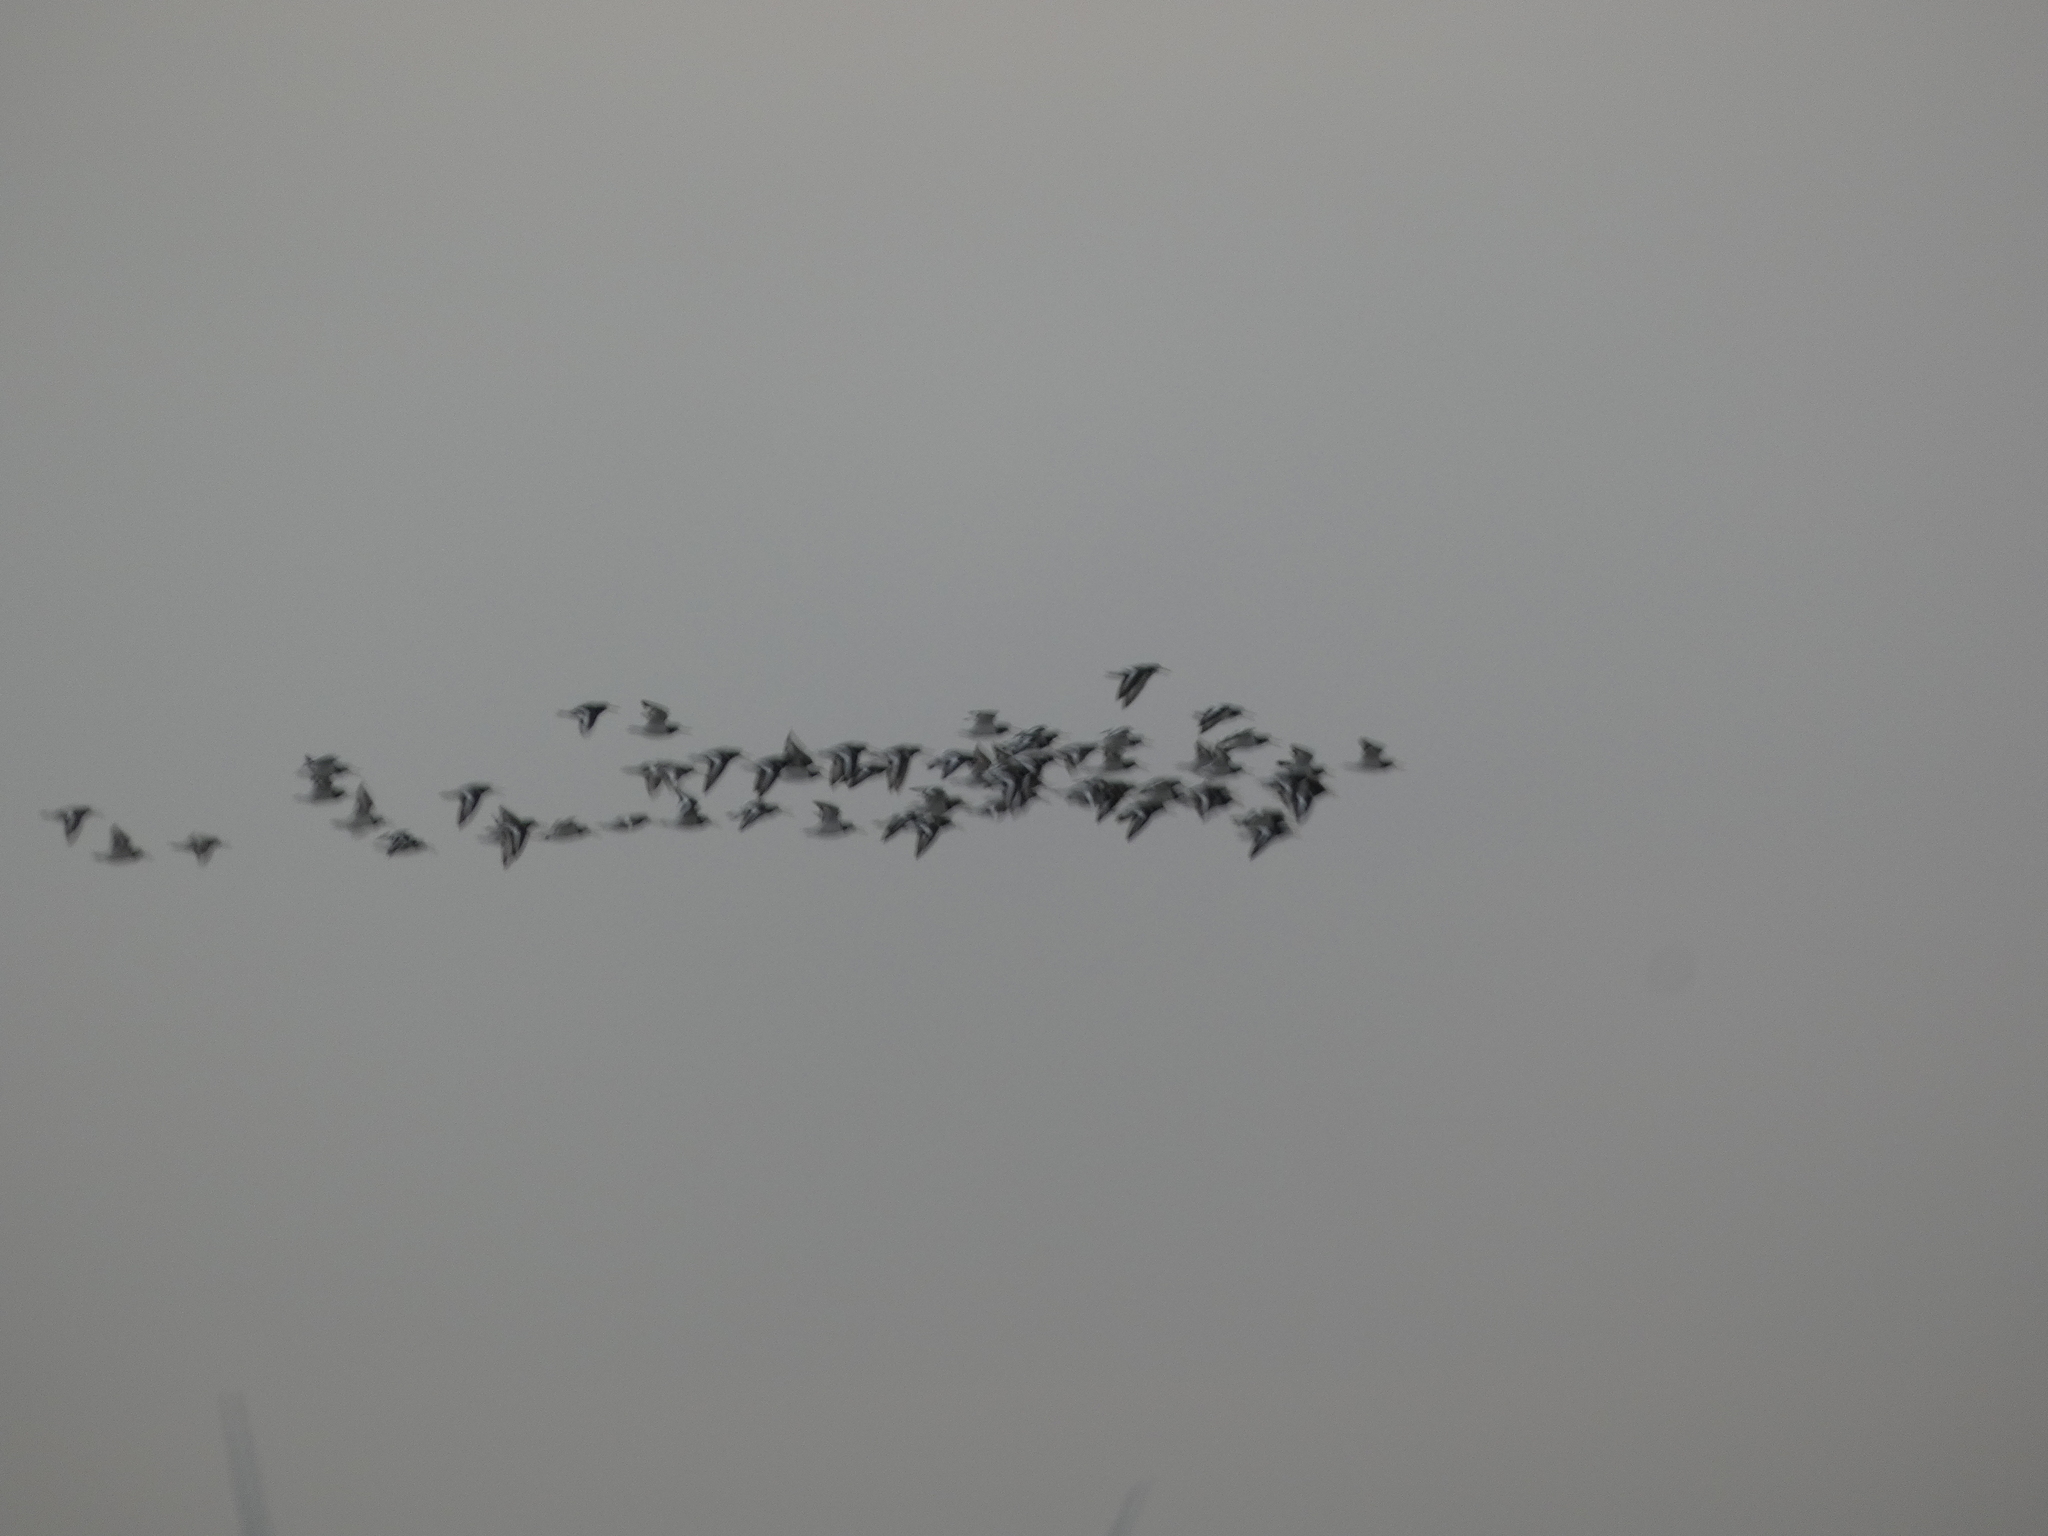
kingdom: Animalia
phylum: Chordata
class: Aves
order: Charadriiformes
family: Haematopodidae
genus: Haematopus
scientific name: Haematopus ostralegus
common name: Eurasian oystercatcher
